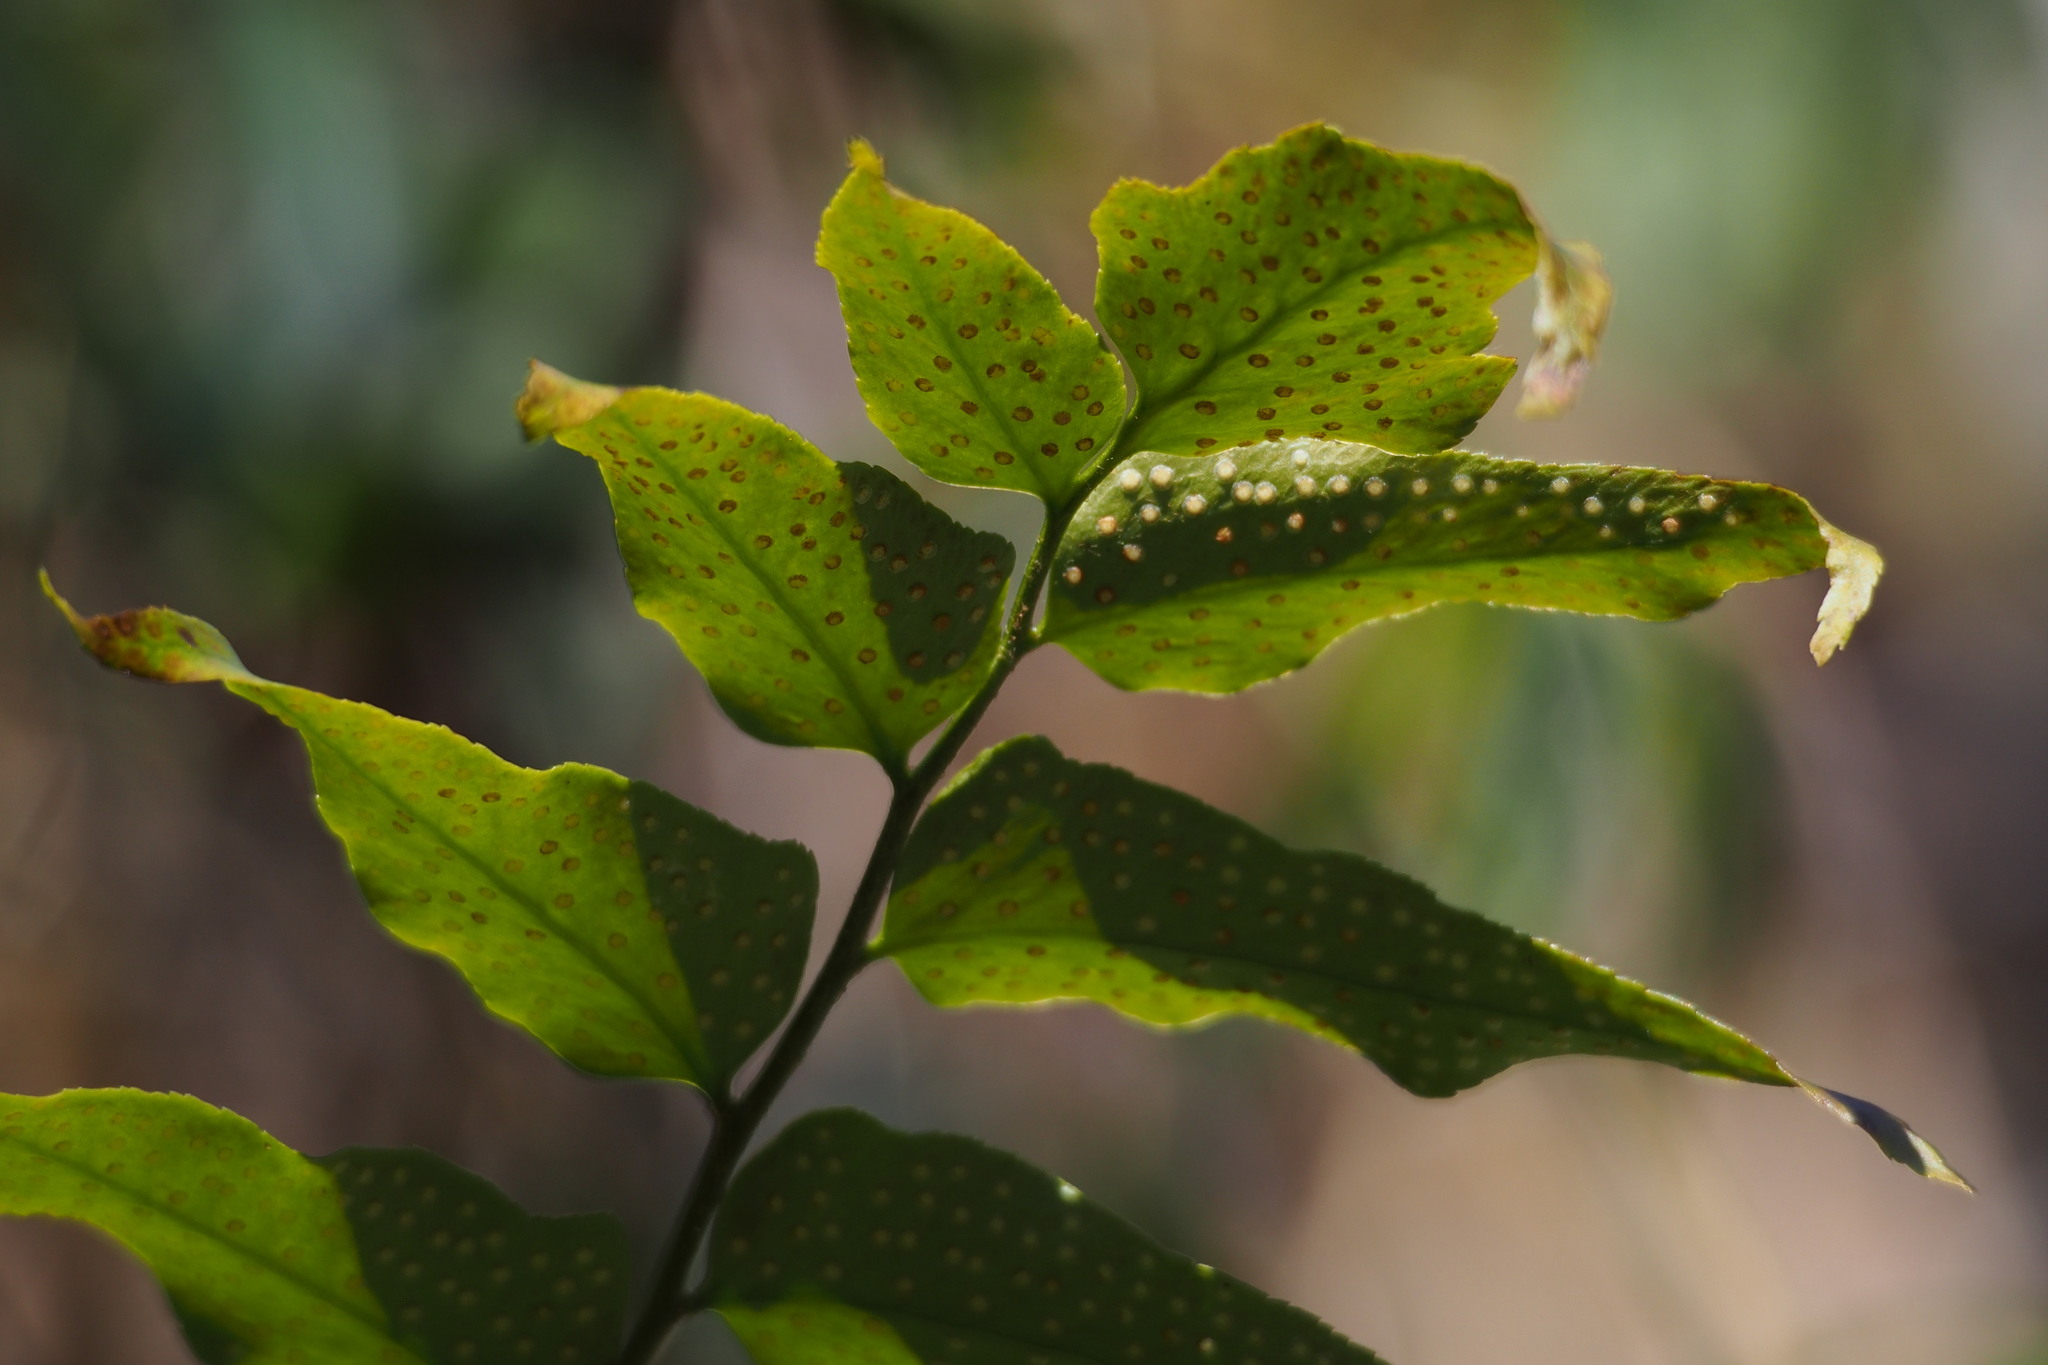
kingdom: Plantae
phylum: Tracheophyta
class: Polypodiopsida
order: Polypodiales
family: Dryopteridaceae
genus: Cyrtomium
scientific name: Cyrtomium fortunei
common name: Asian netvein hollyfern
